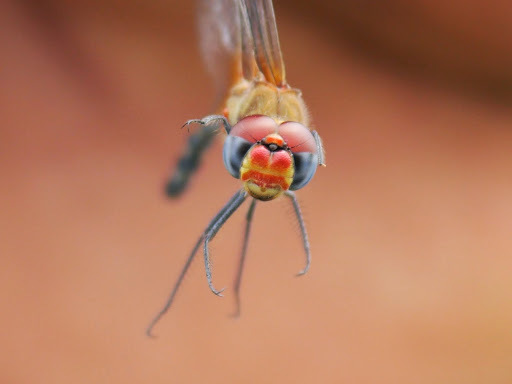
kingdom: Animalia
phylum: Arthropoda
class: Insecta
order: Odonata
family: Libellulidae
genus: Diplacodes
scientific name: Diplacodes luminans
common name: Barbet percher
